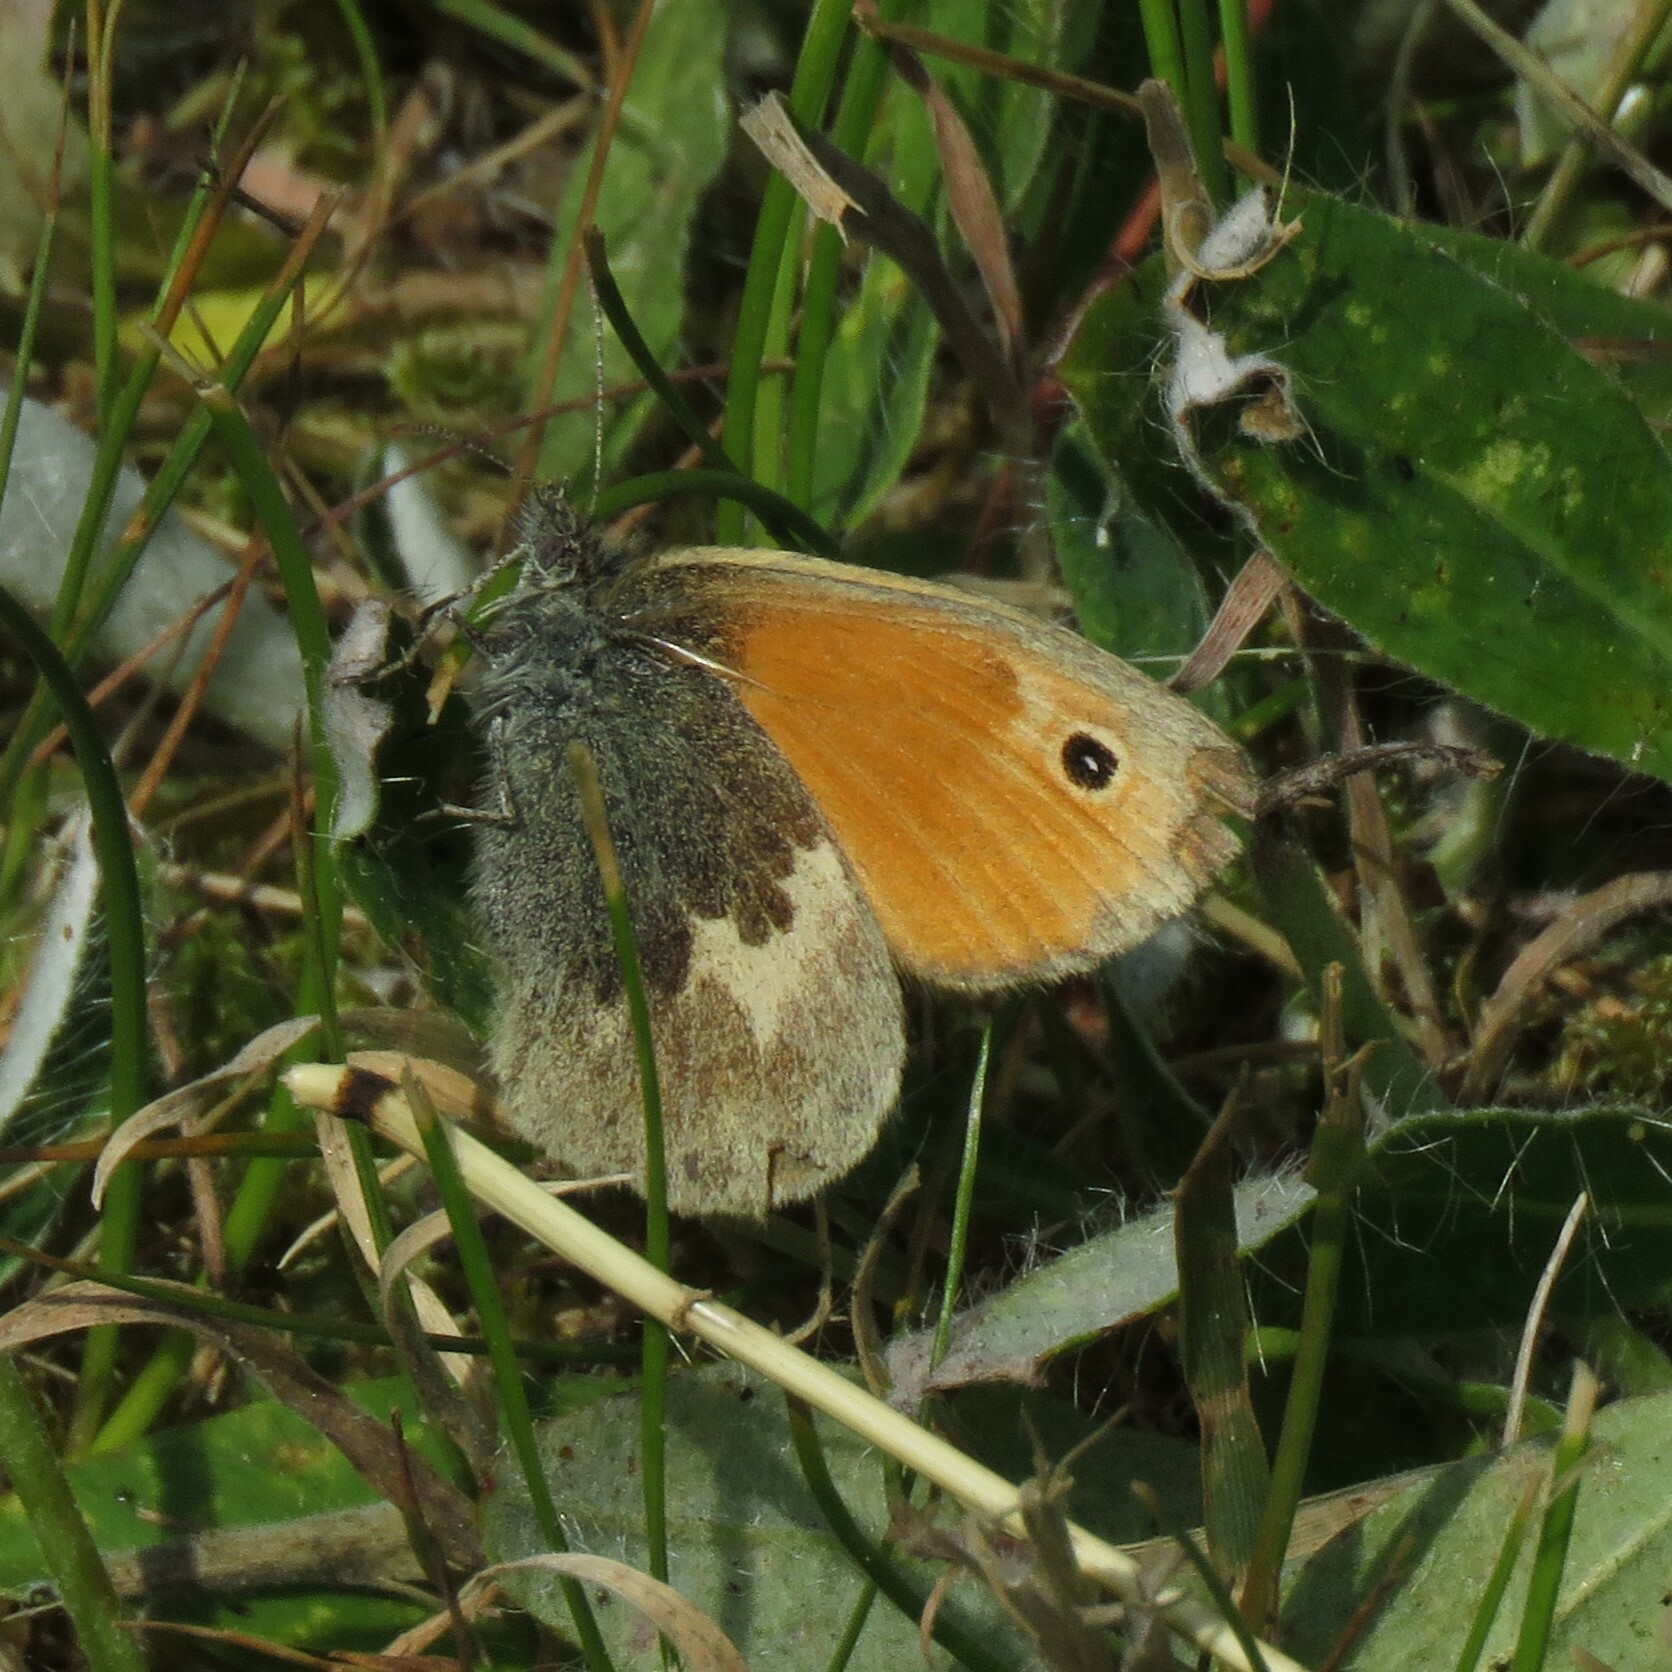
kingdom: Animalia
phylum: Arthropoda
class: Insecta
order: Lepidoptera
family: Nymphalidae
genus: Coenonympha
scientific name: Coenonympha pamphilus
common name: Small heath
